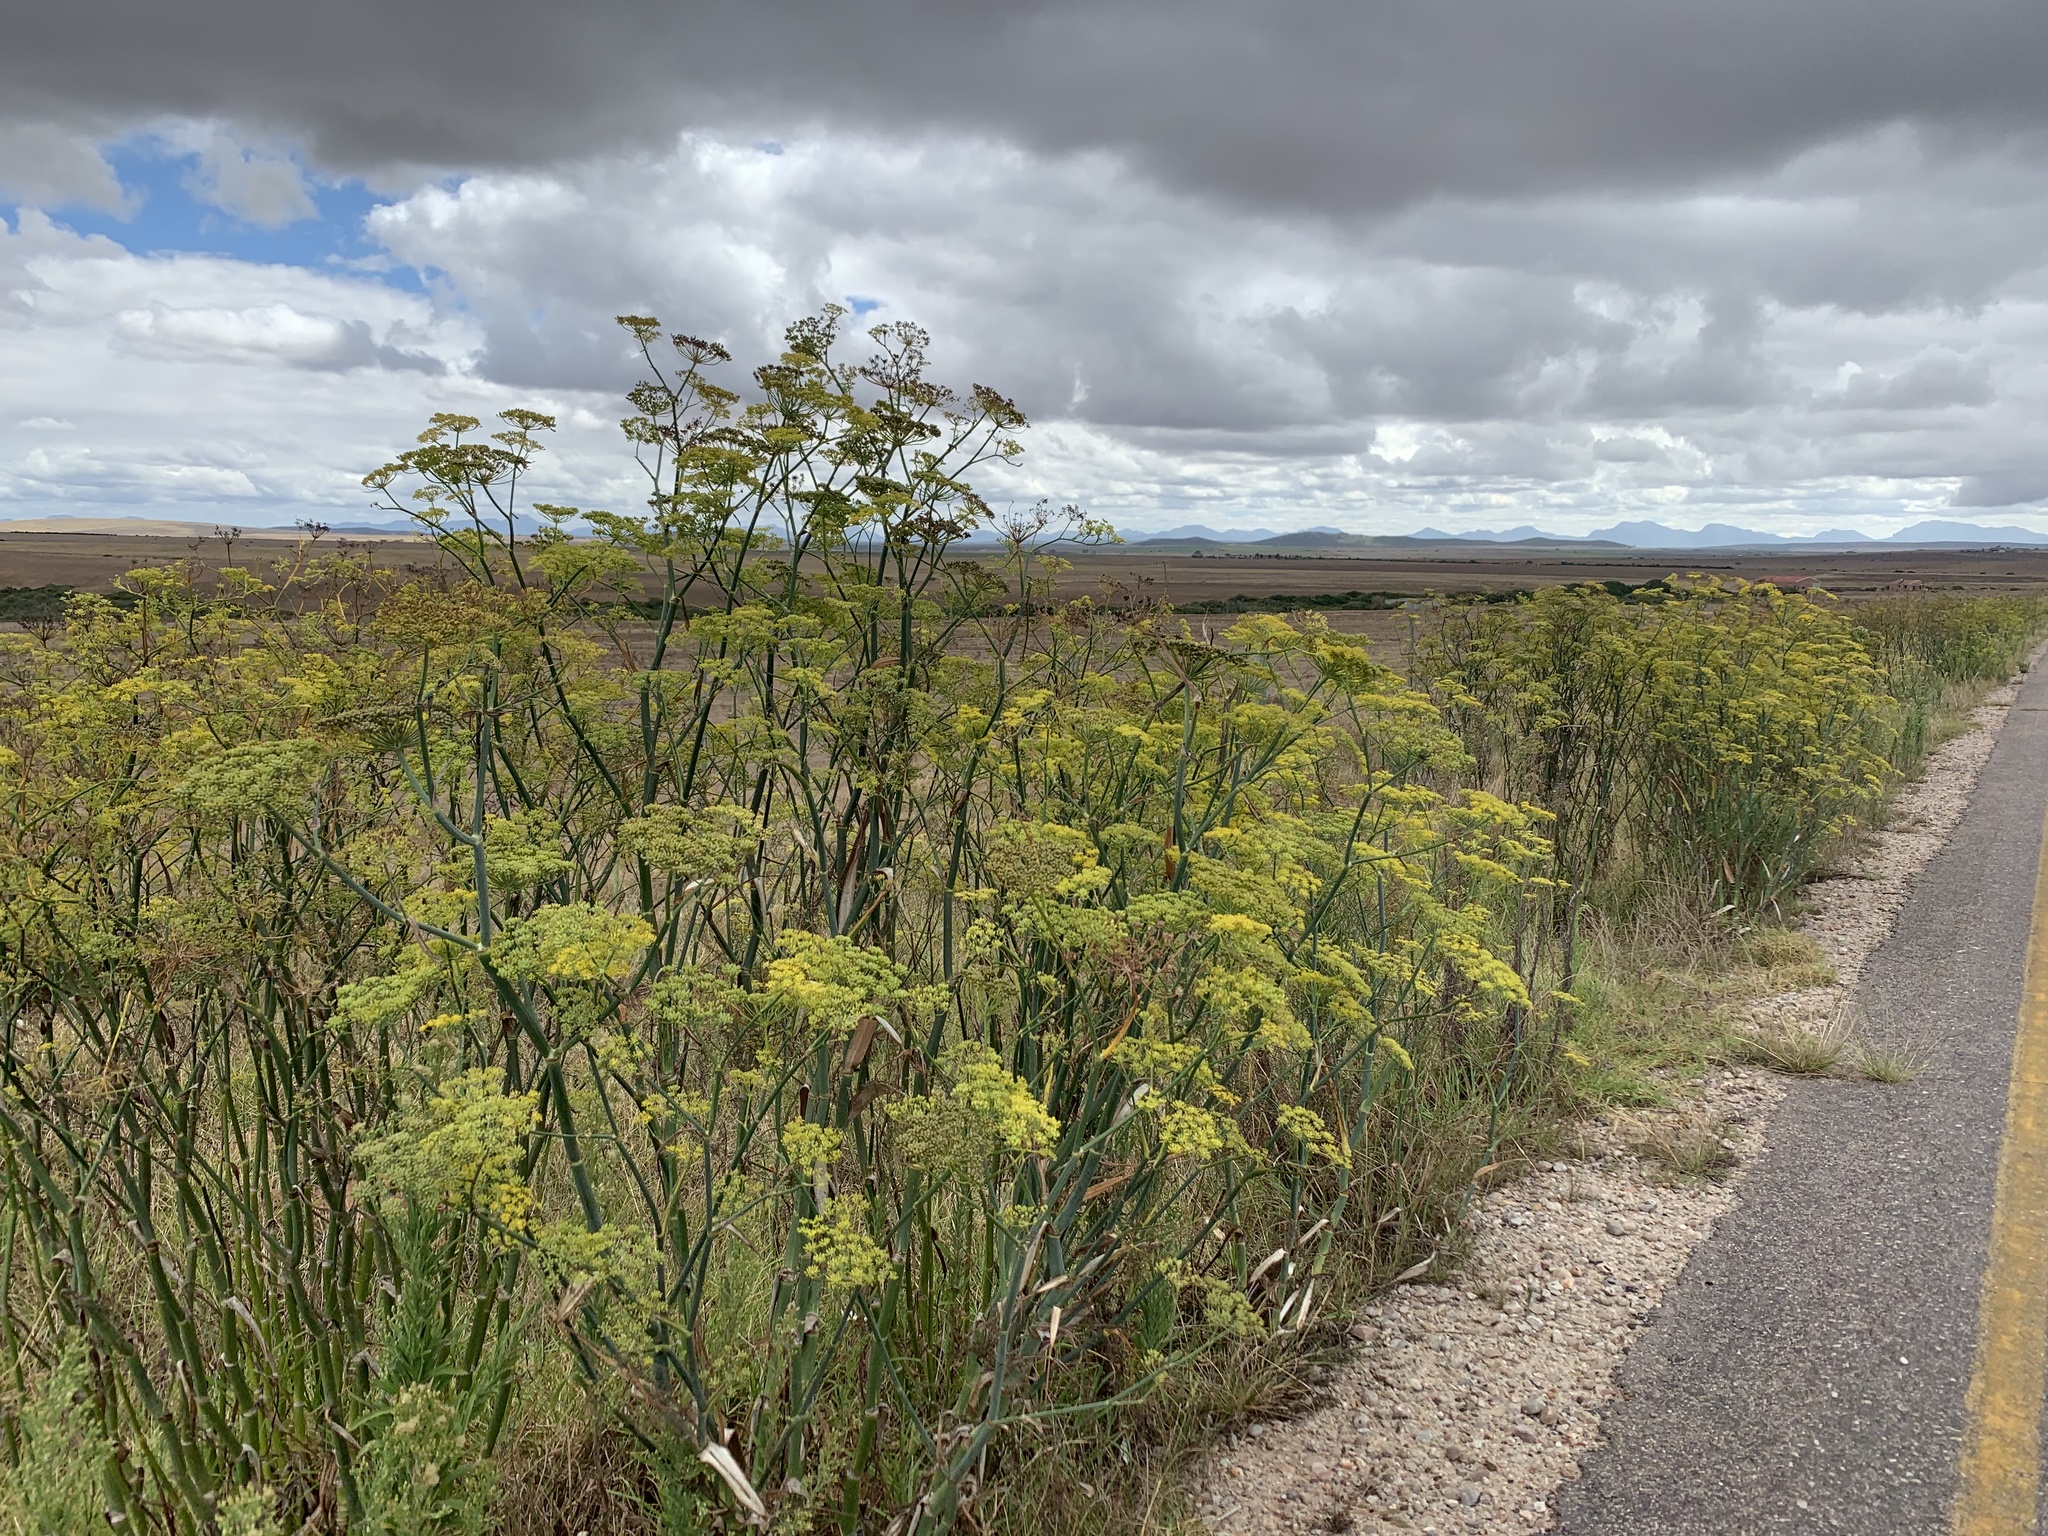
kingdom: Plantae
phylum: Tracheophyta
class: Magnoliopsida
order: Apiales
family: Apiaceae
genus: Foeniculum
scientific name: Foeniculum vulgare
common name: Fennel
